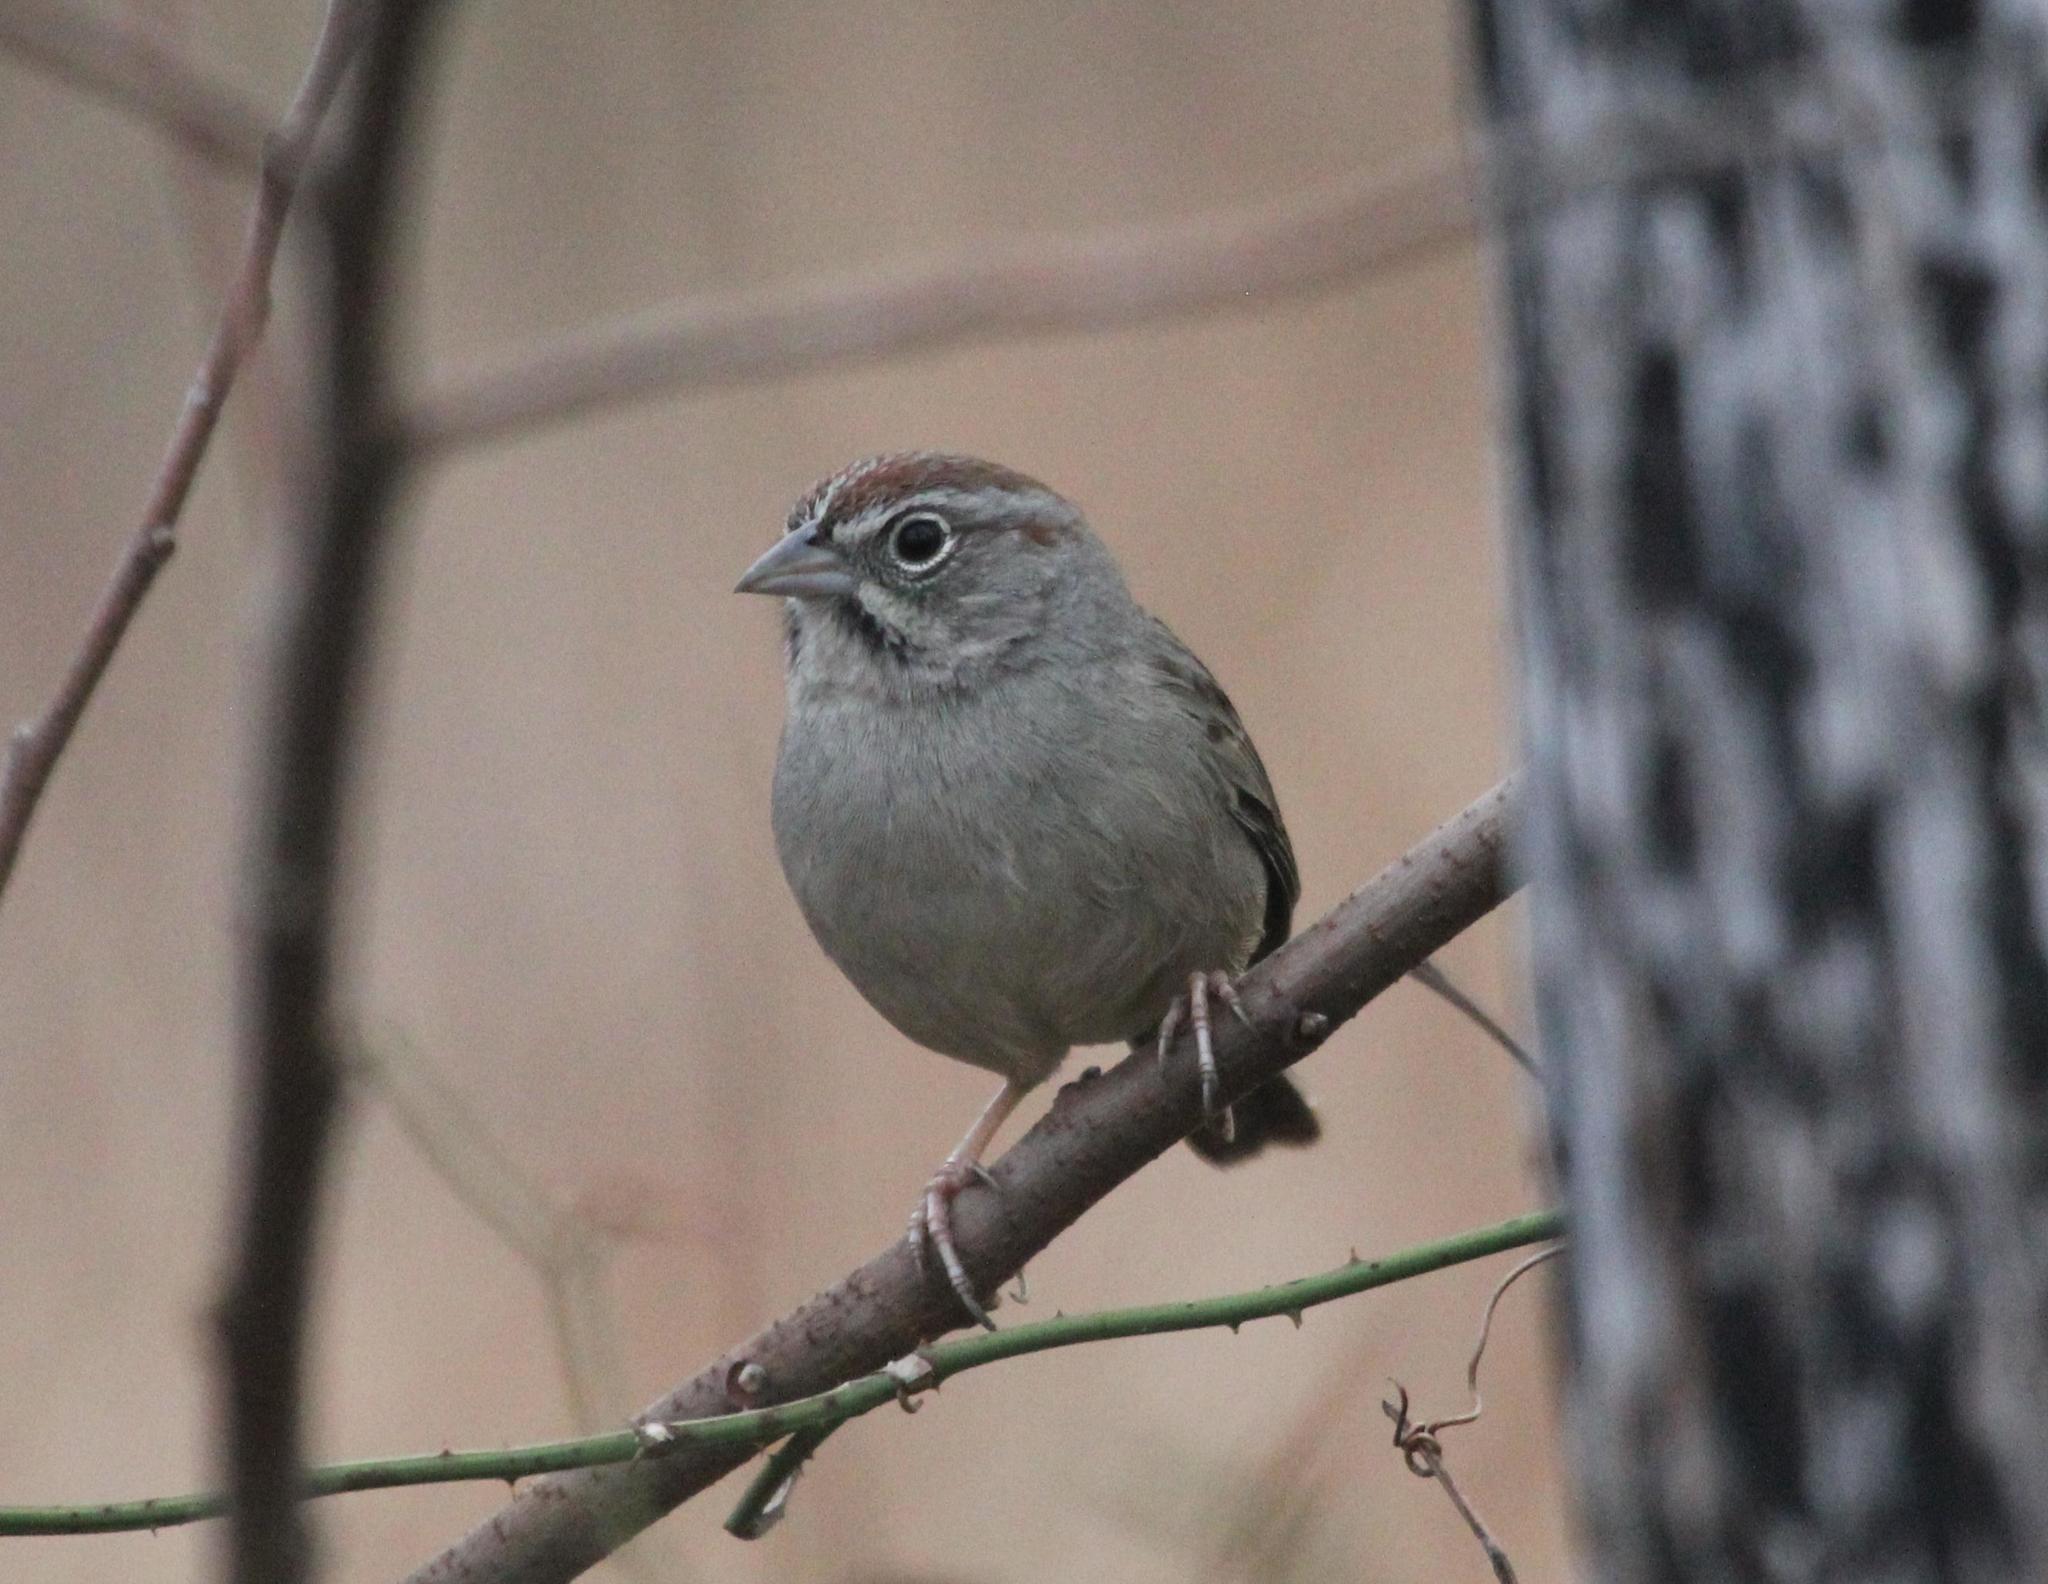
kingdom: Animalia
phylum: Chordata
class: Aves
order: Passeriformes
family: Passerellidae
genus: Aimophila
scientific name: Aimophila ruficeps
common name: Rufous-crowned sparrow
